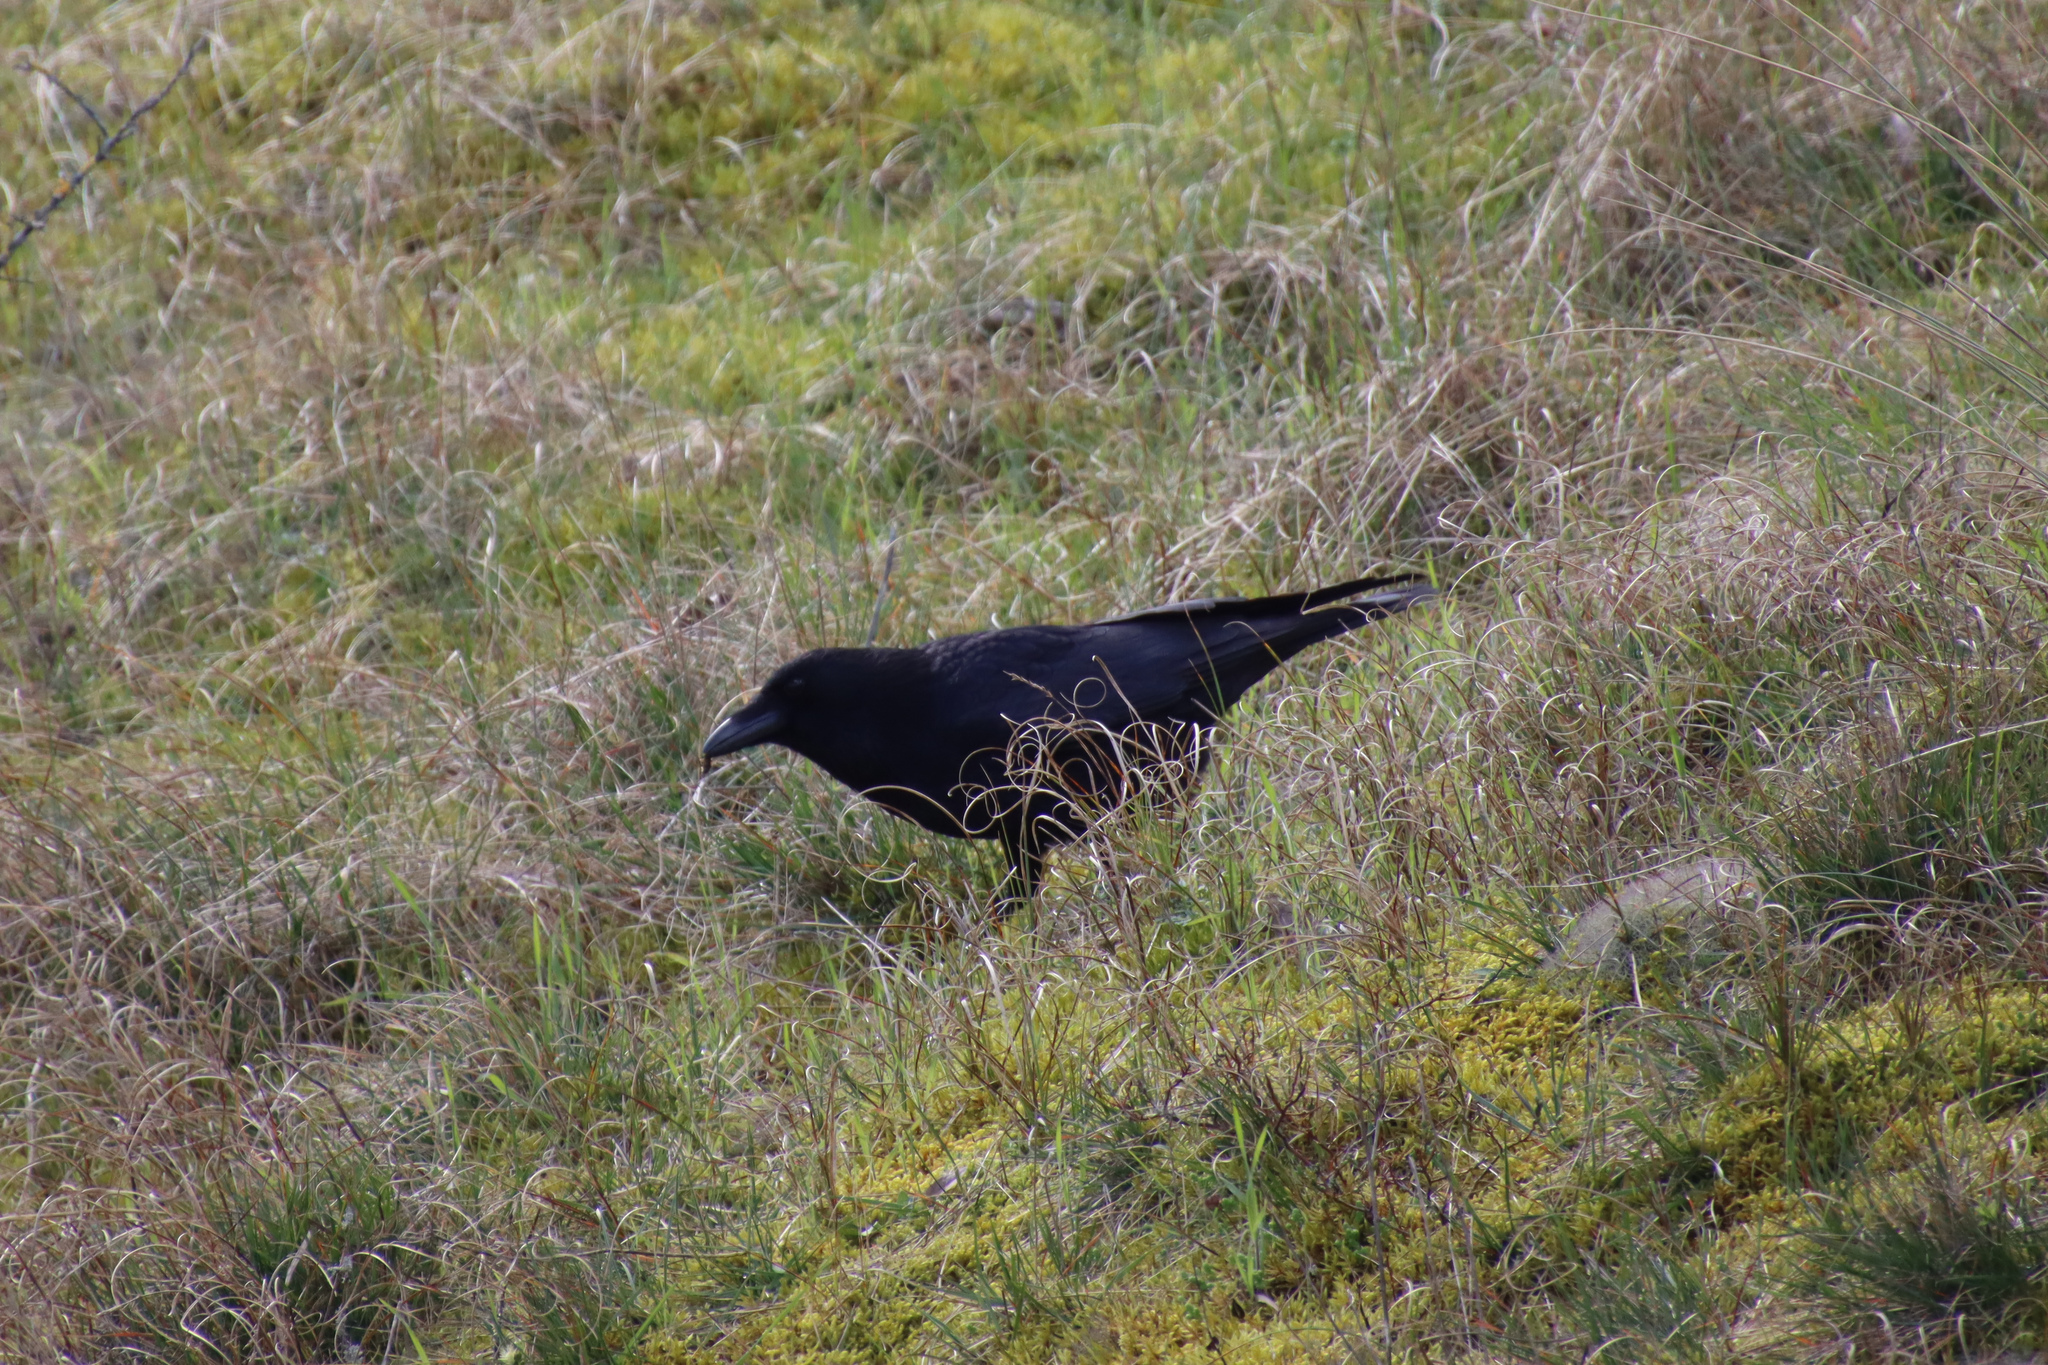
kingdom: Animalia
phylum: Chordata
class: Aves
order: Passeriformes
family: Corvidae
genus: Corvus
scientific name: Corvus corone
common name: Carrion crow
